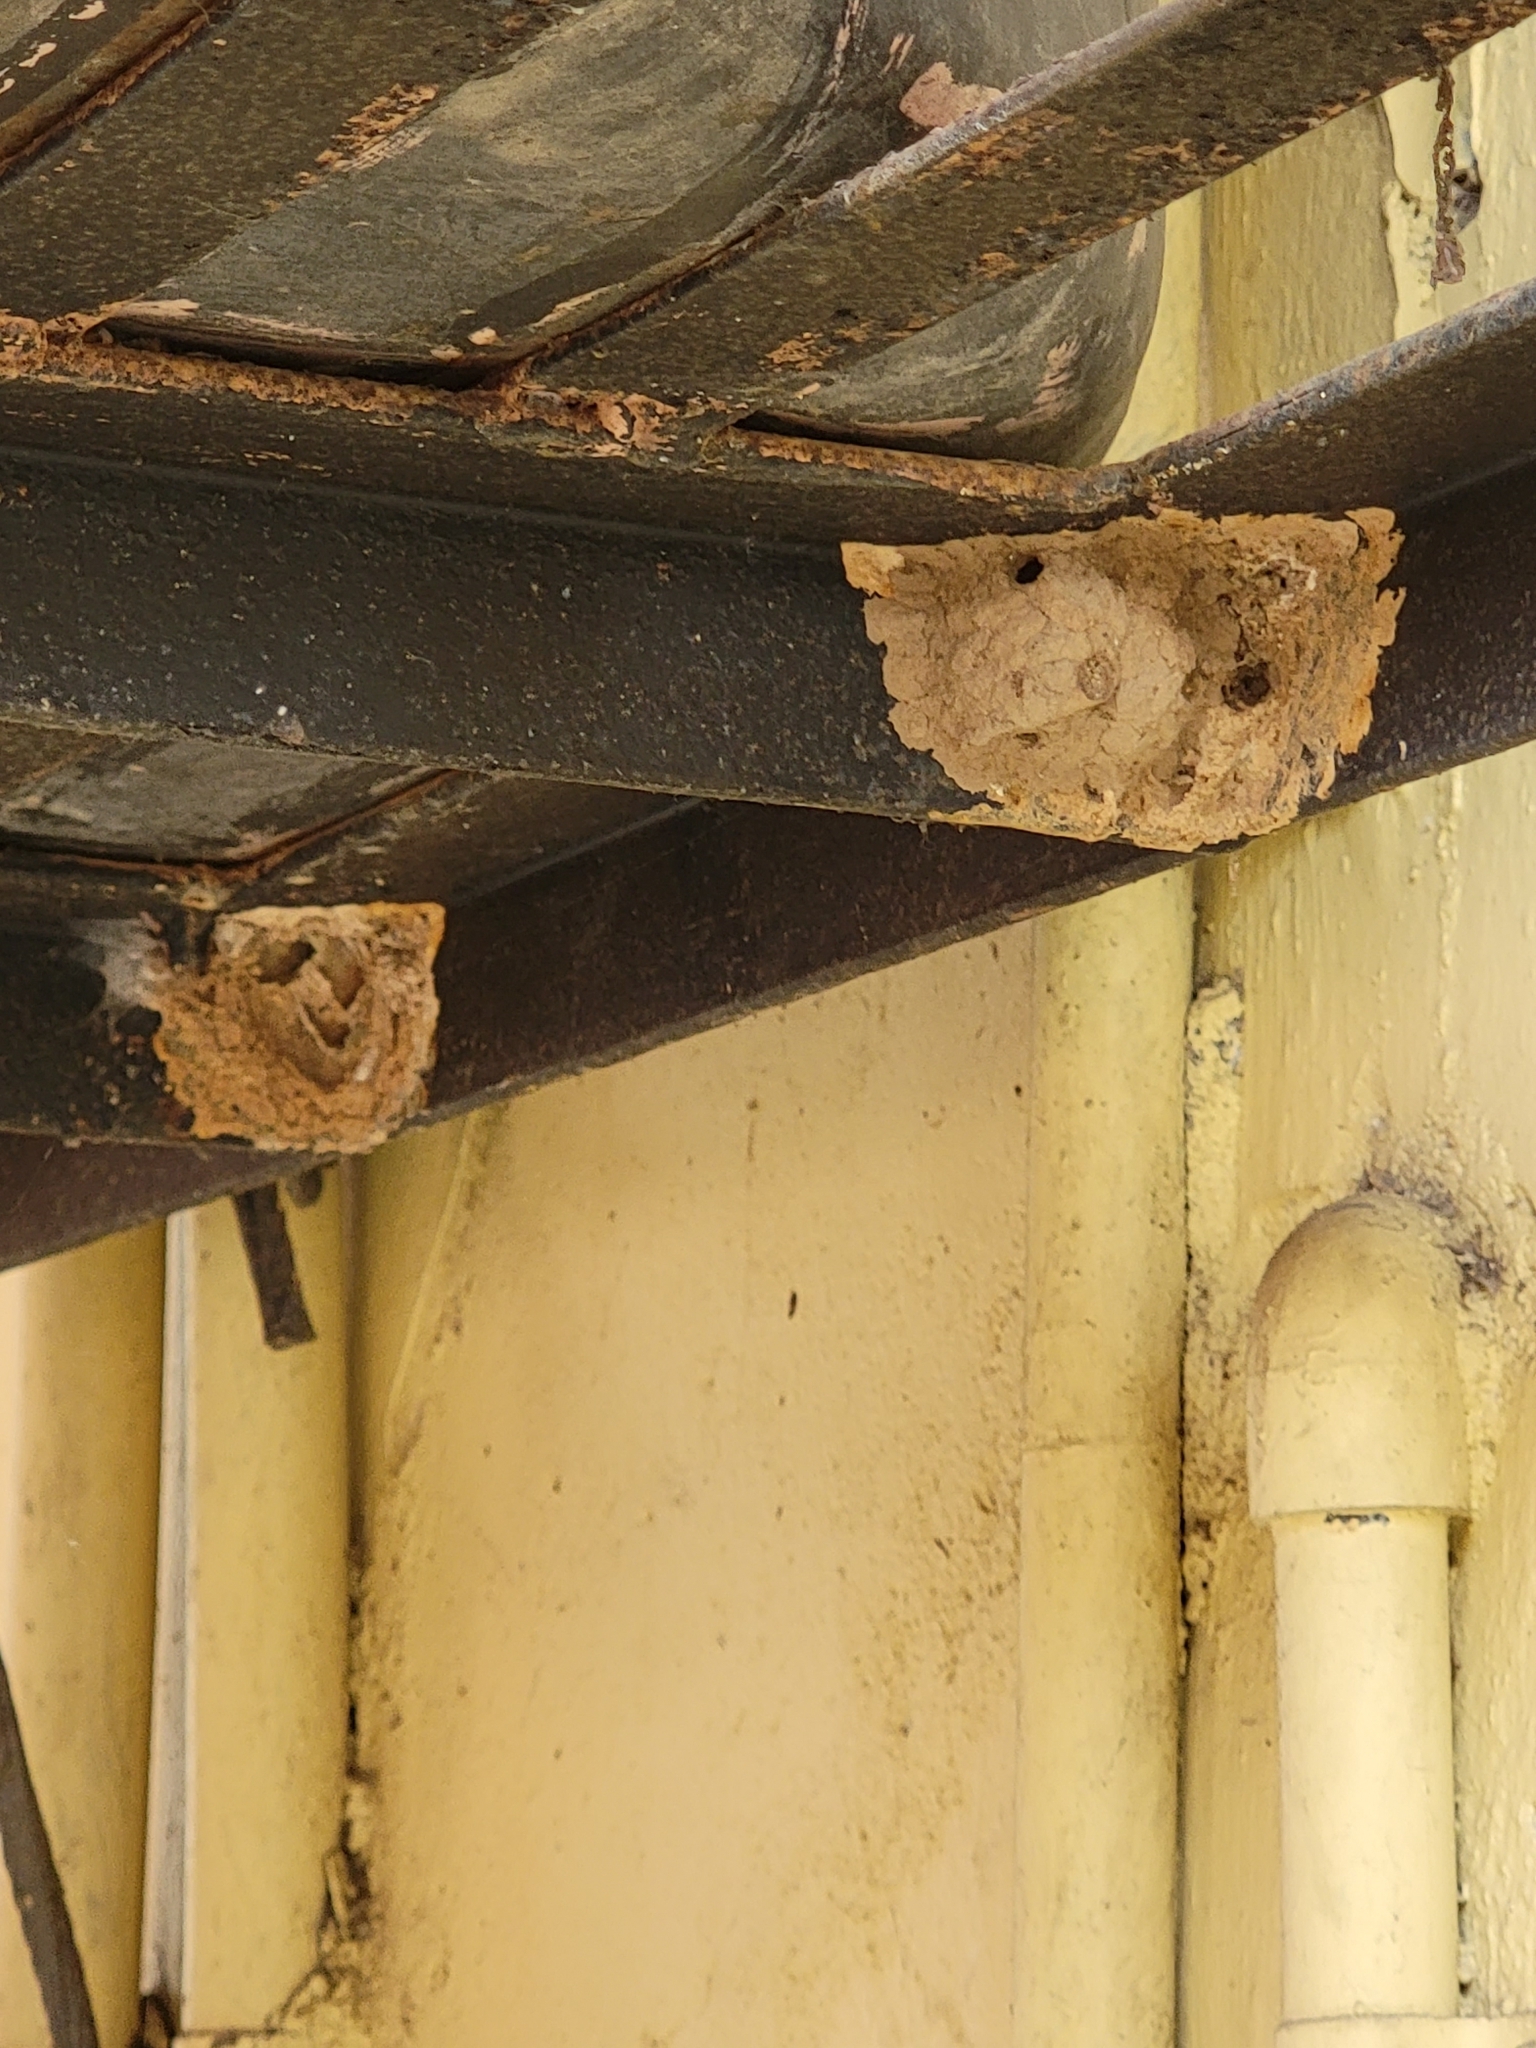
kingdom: Animalia
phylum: Arthropoda
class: Insecta
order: Hymenoptera
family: Eumenidae
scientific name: Eumenidae
